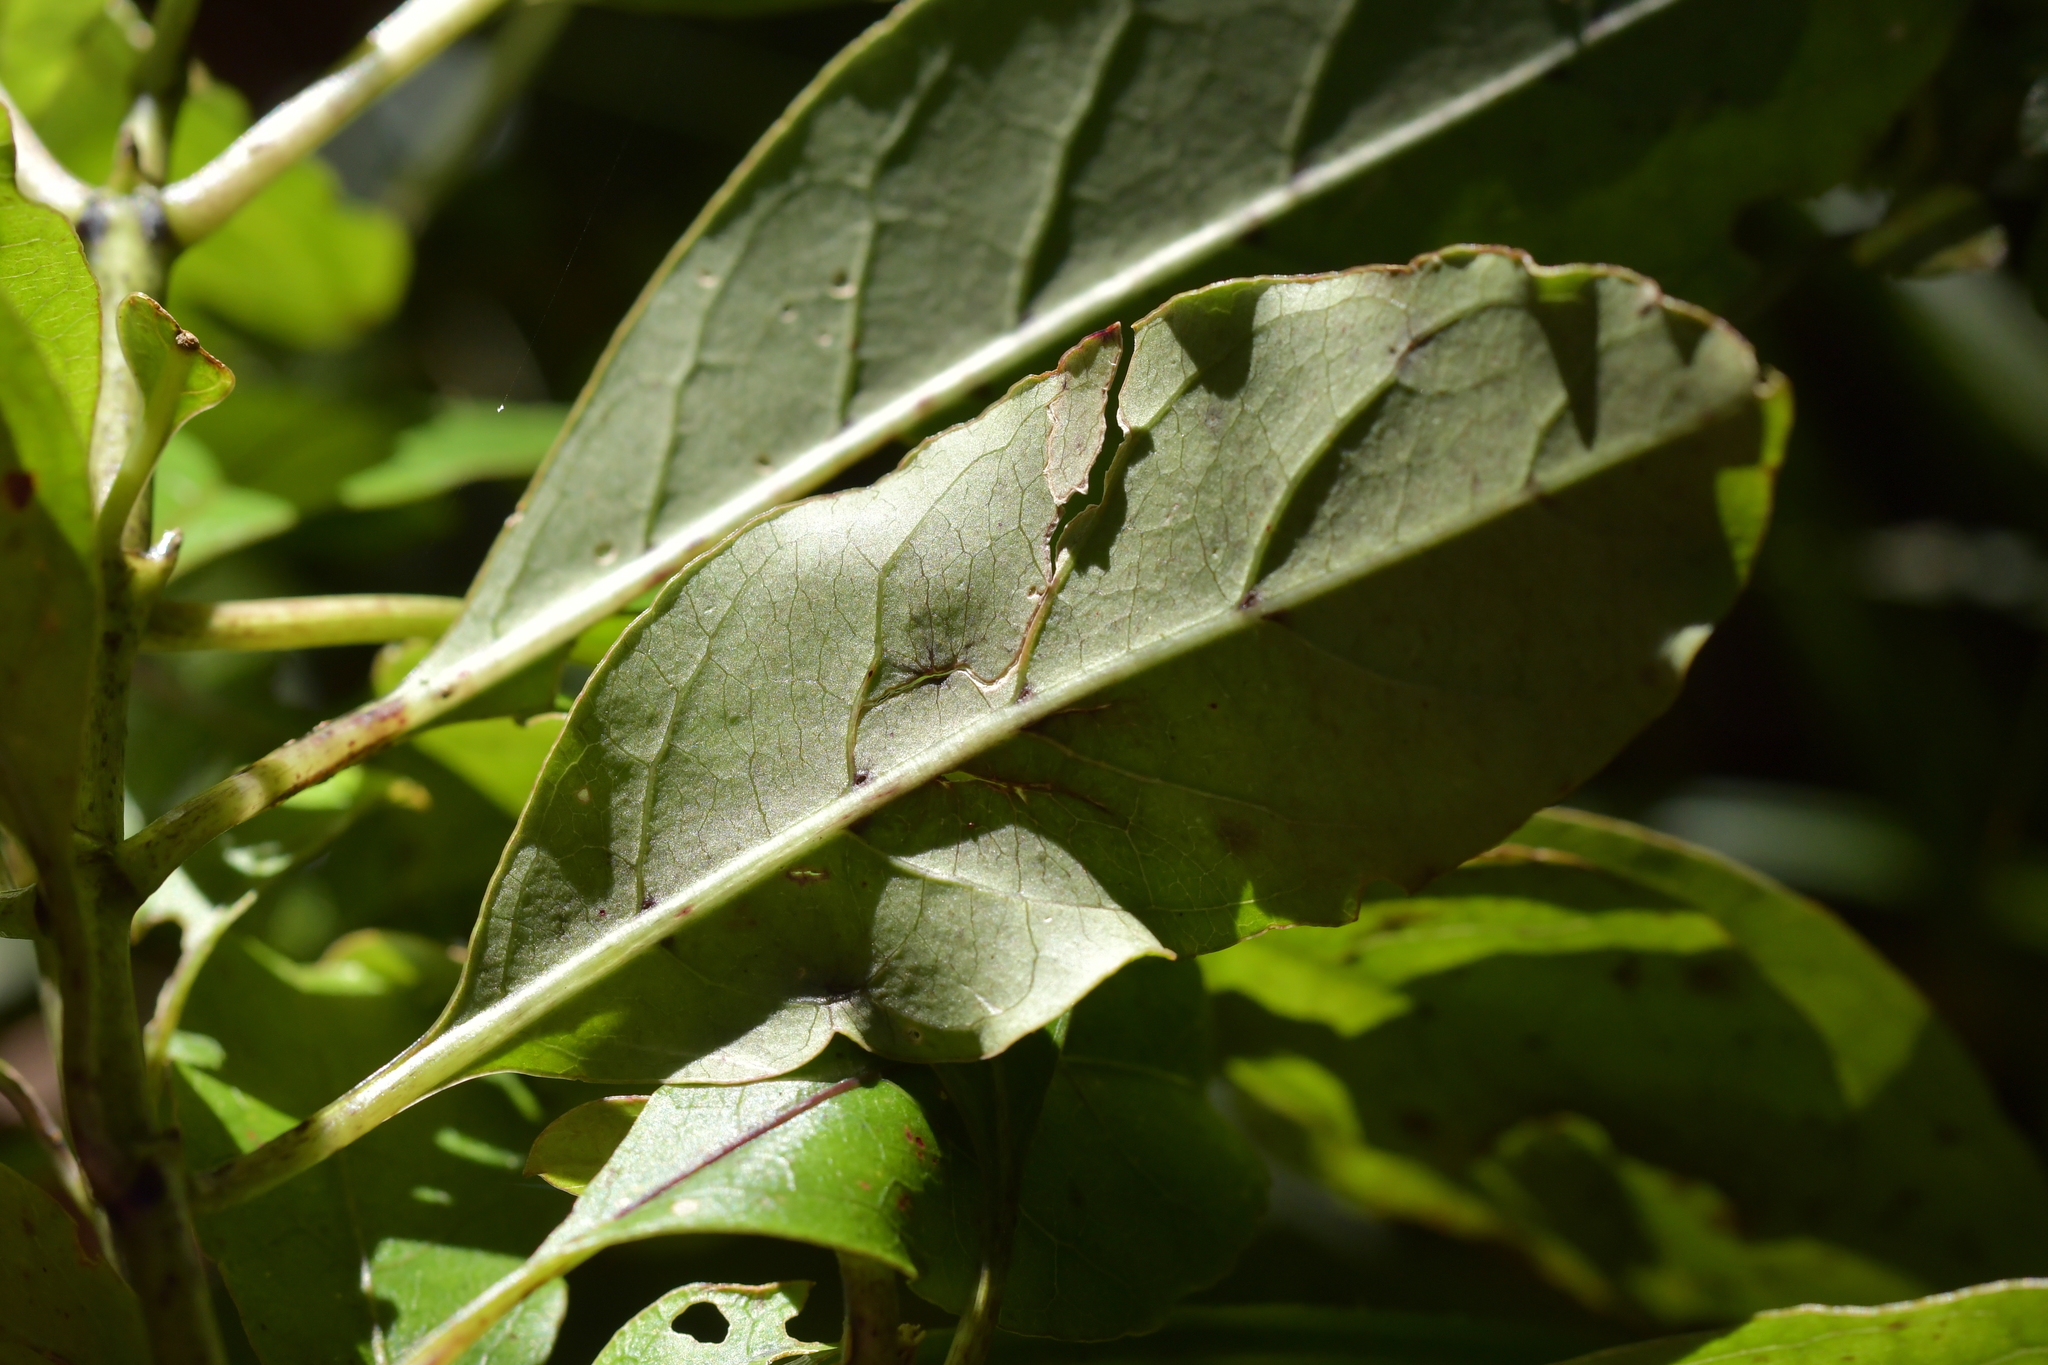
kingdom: Plantae
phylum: Tracheophyta
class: Magnoliopsida
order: Gentianales
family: Rubiaceae
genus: Coprosma
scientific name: Coprosma autumnalis
